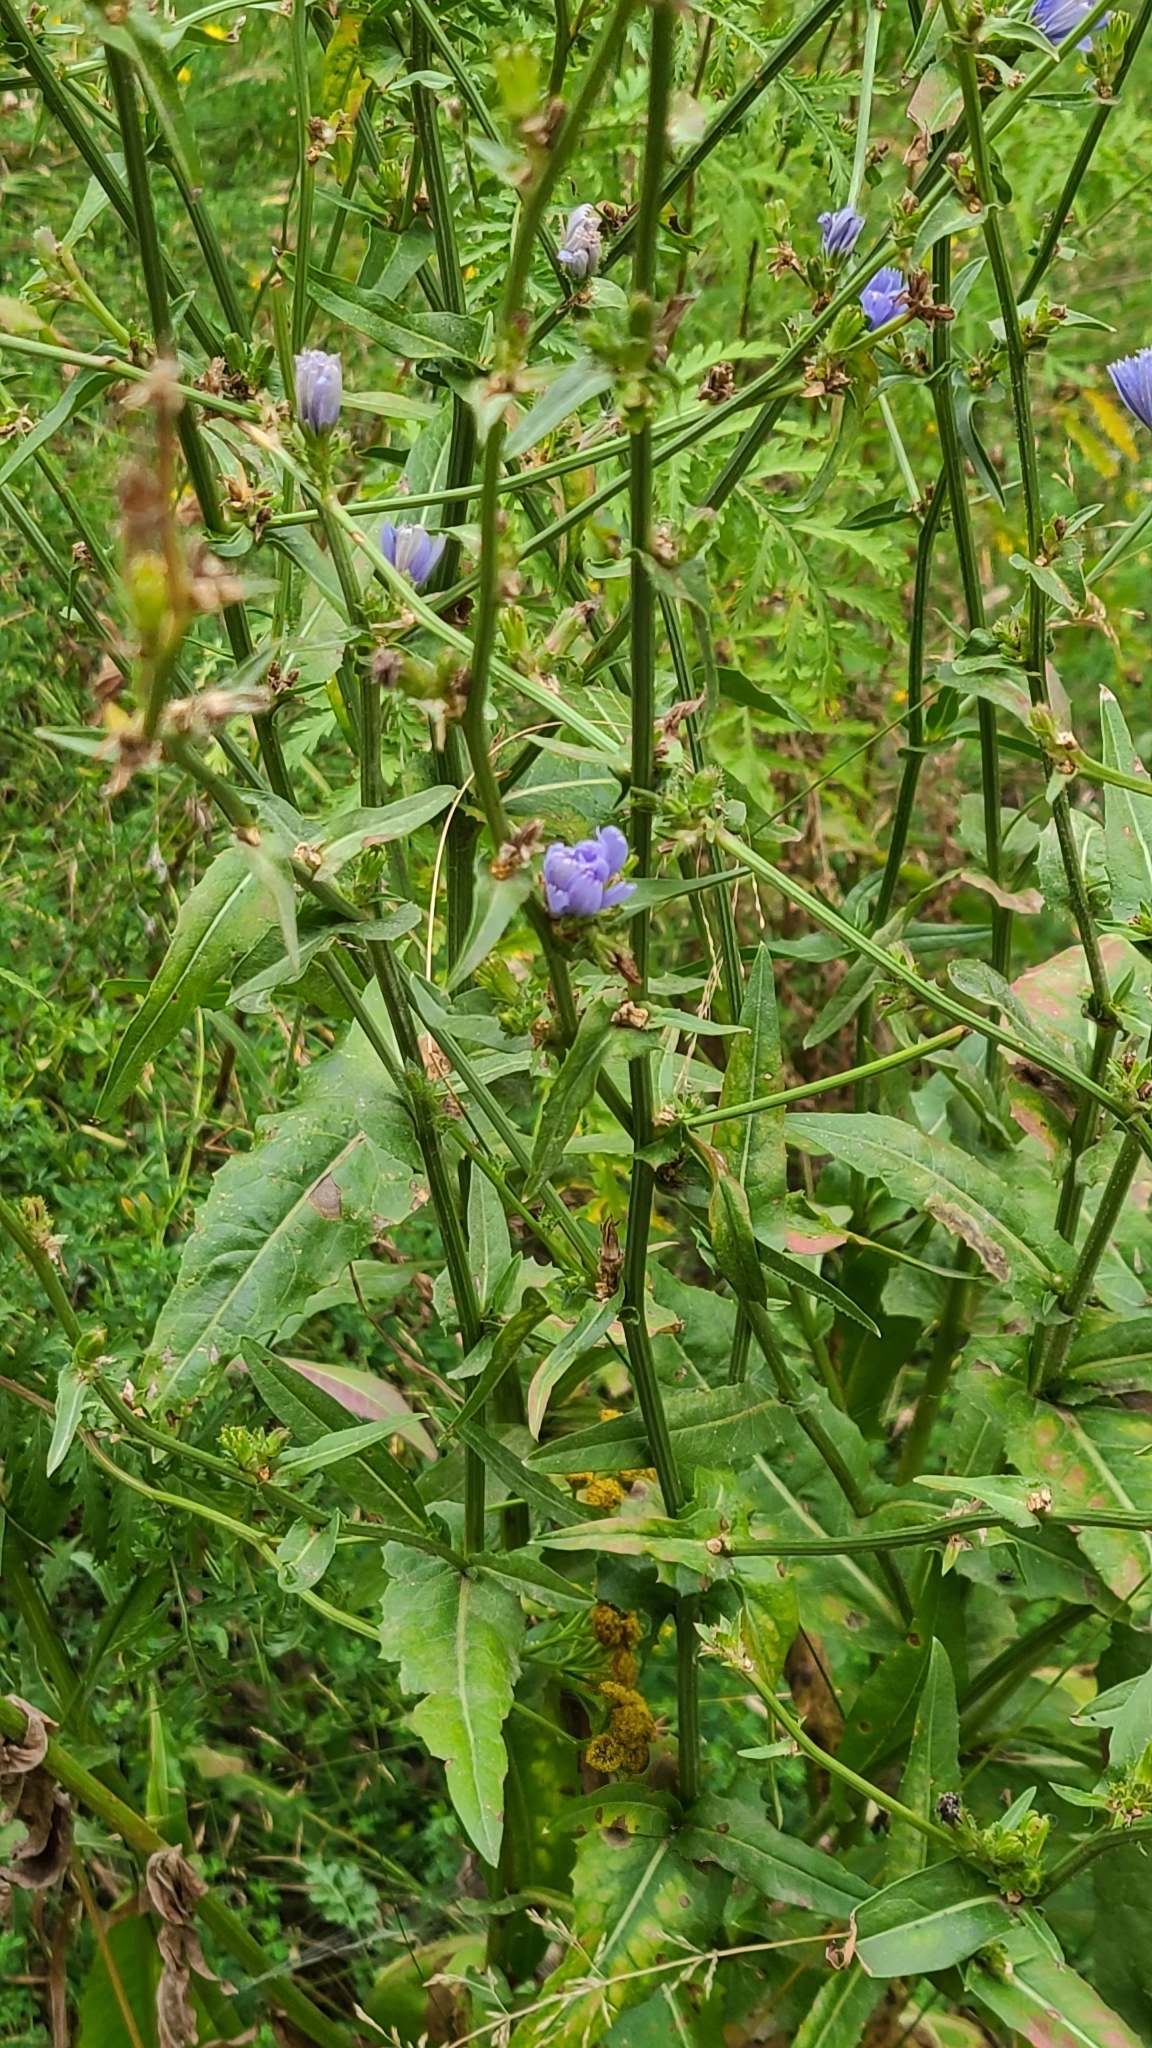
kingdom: Plantae
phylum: Tracheophyta
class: Magnoliopsida
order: Asterales
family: Asteraceae
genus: Cichorium
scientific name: Cichorium intybus
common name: Chicory
